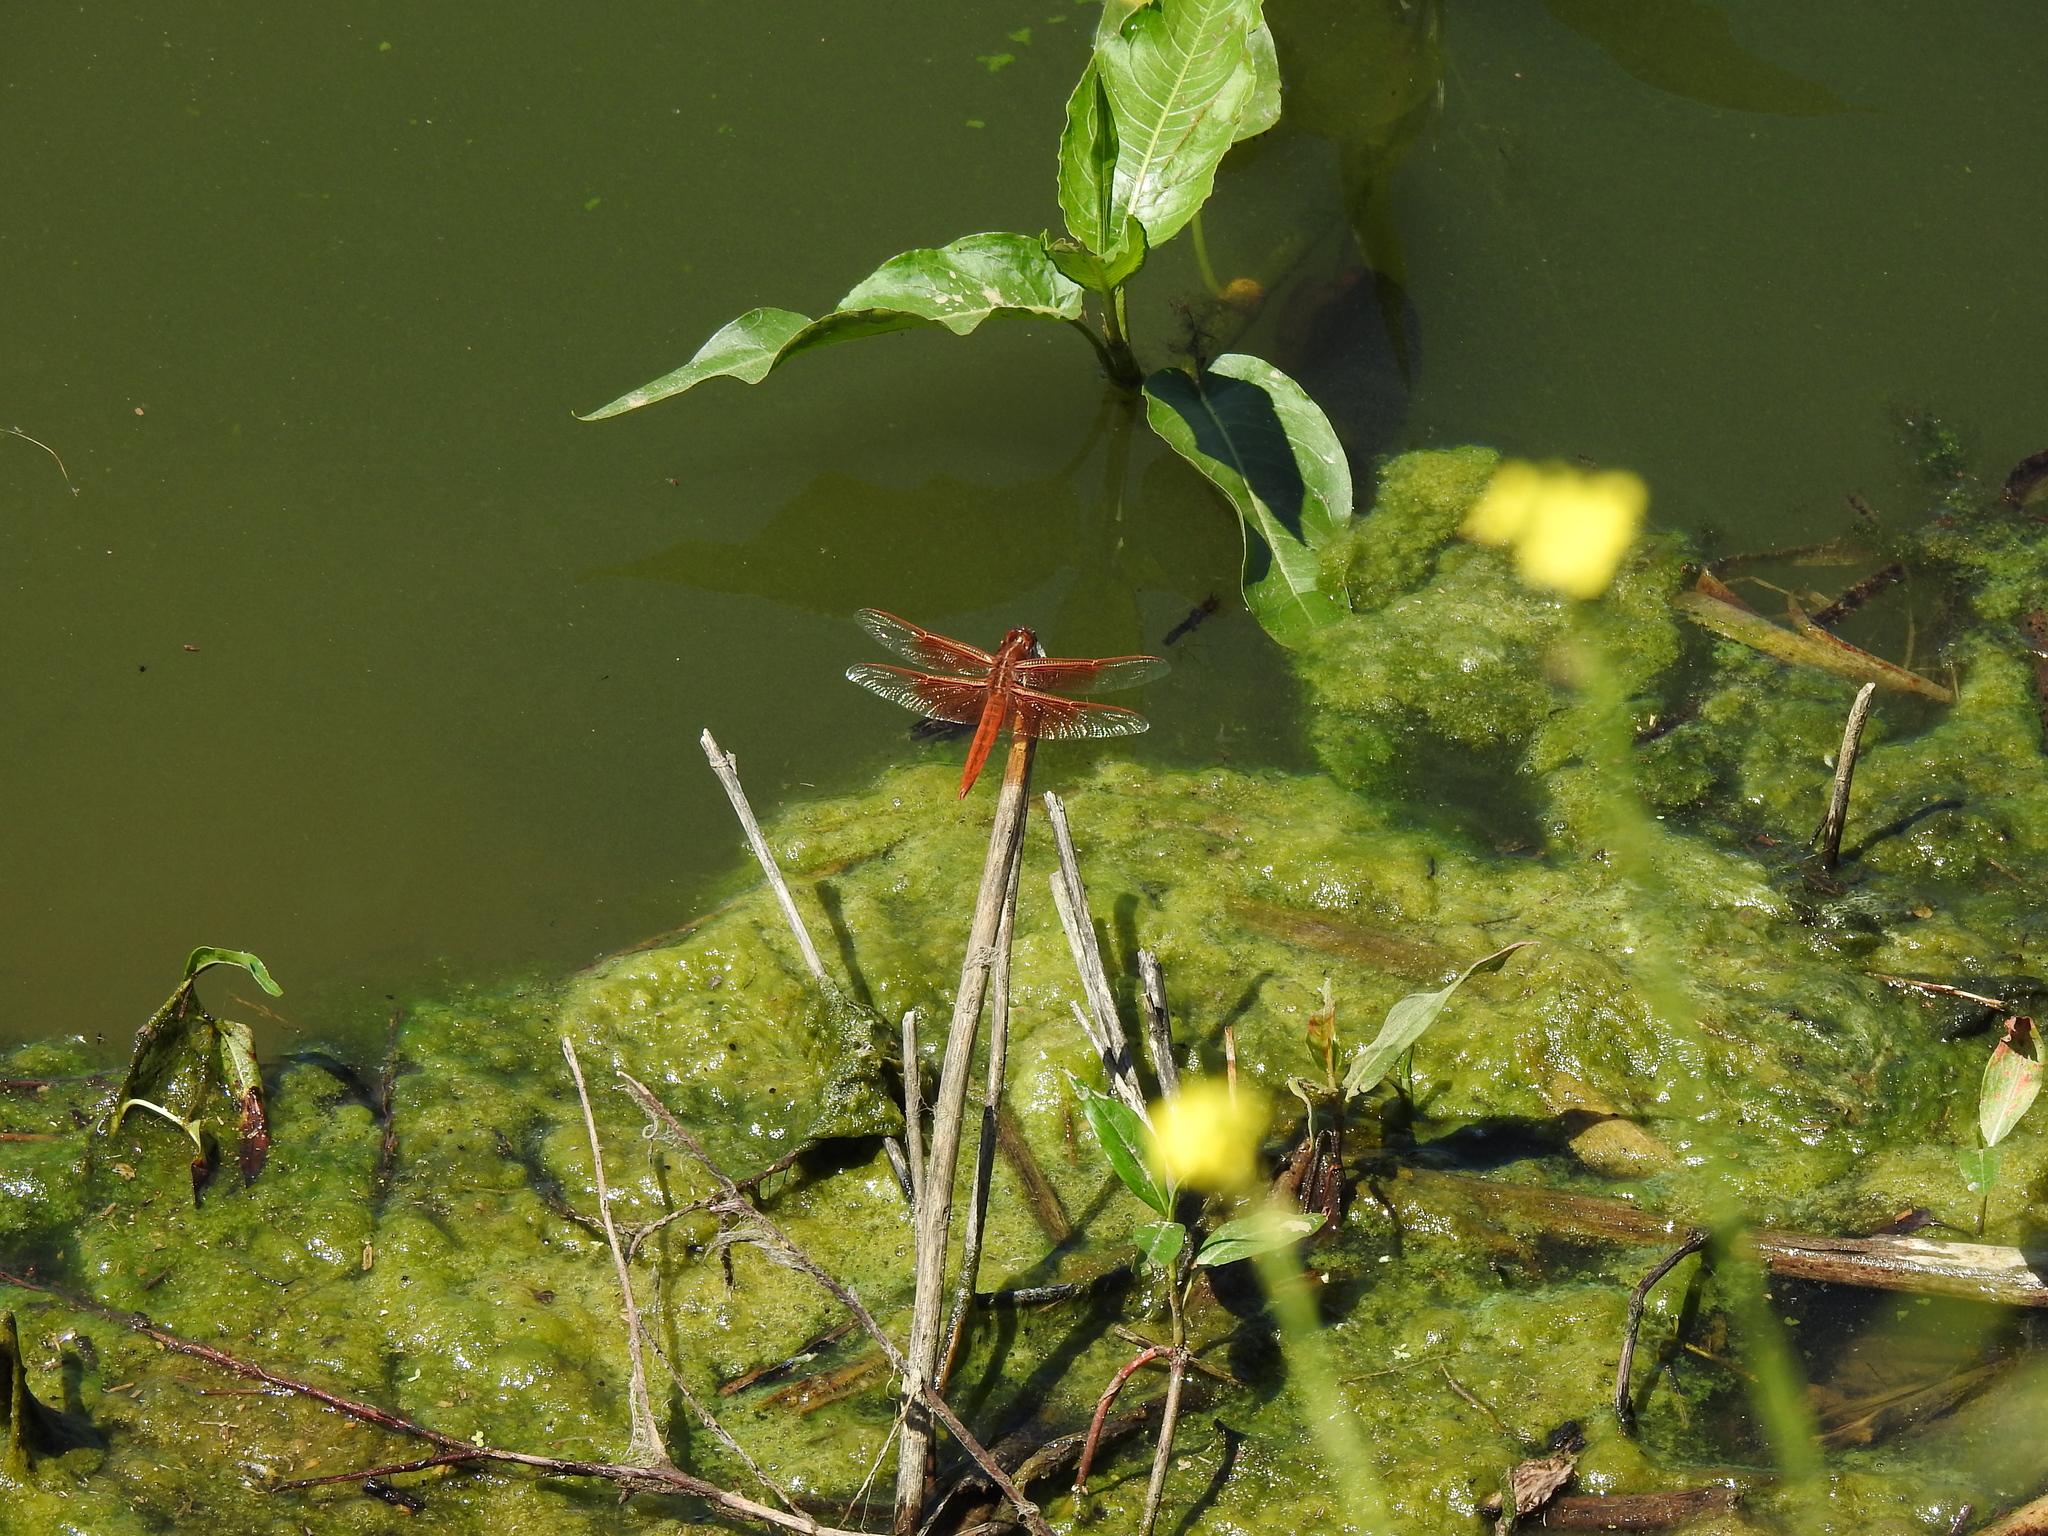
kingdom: Animalia
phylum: Arthropoda
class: Insecta
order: Odonata
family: Libellulidae
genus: Libellula
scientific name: Libellula saturata
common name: Flame skimmer
